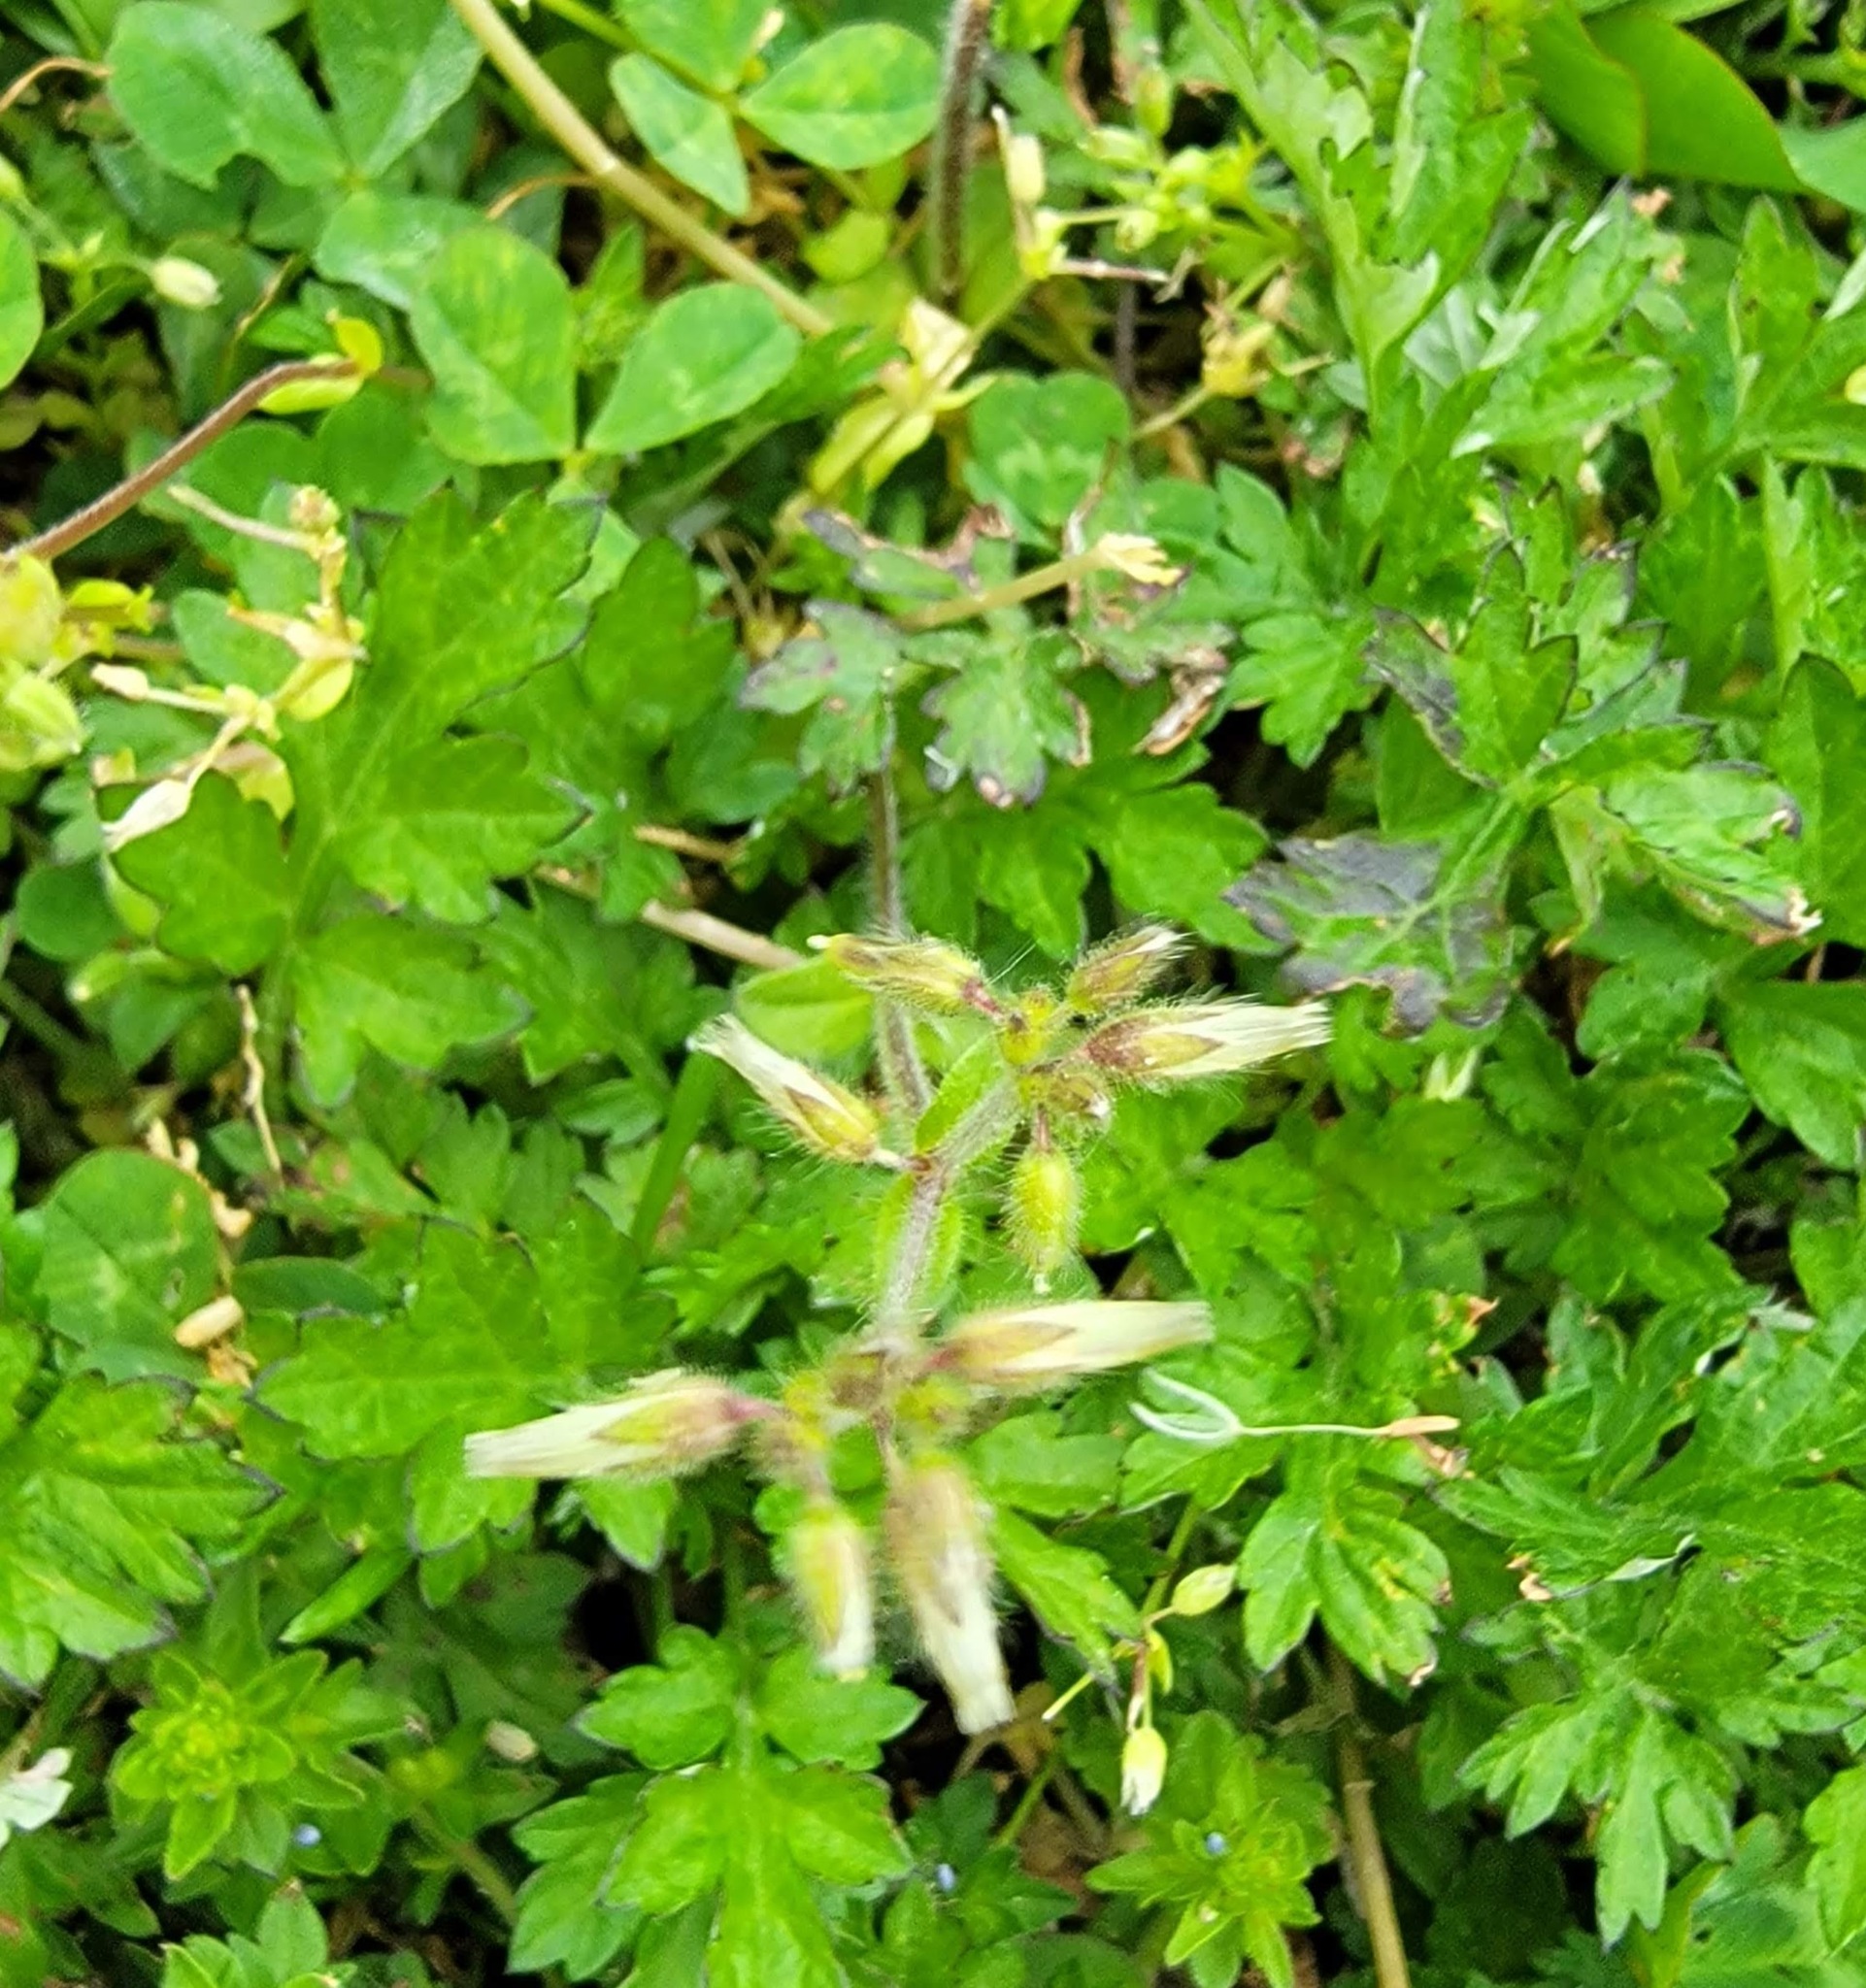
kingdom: Plantae
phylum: Tracheophyta
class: Magnoliopsida
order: Caryophyllales
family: Caryophyllaceae
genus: Cerastium
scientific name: Cerastium glomeratum
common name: Sticky chickweed
